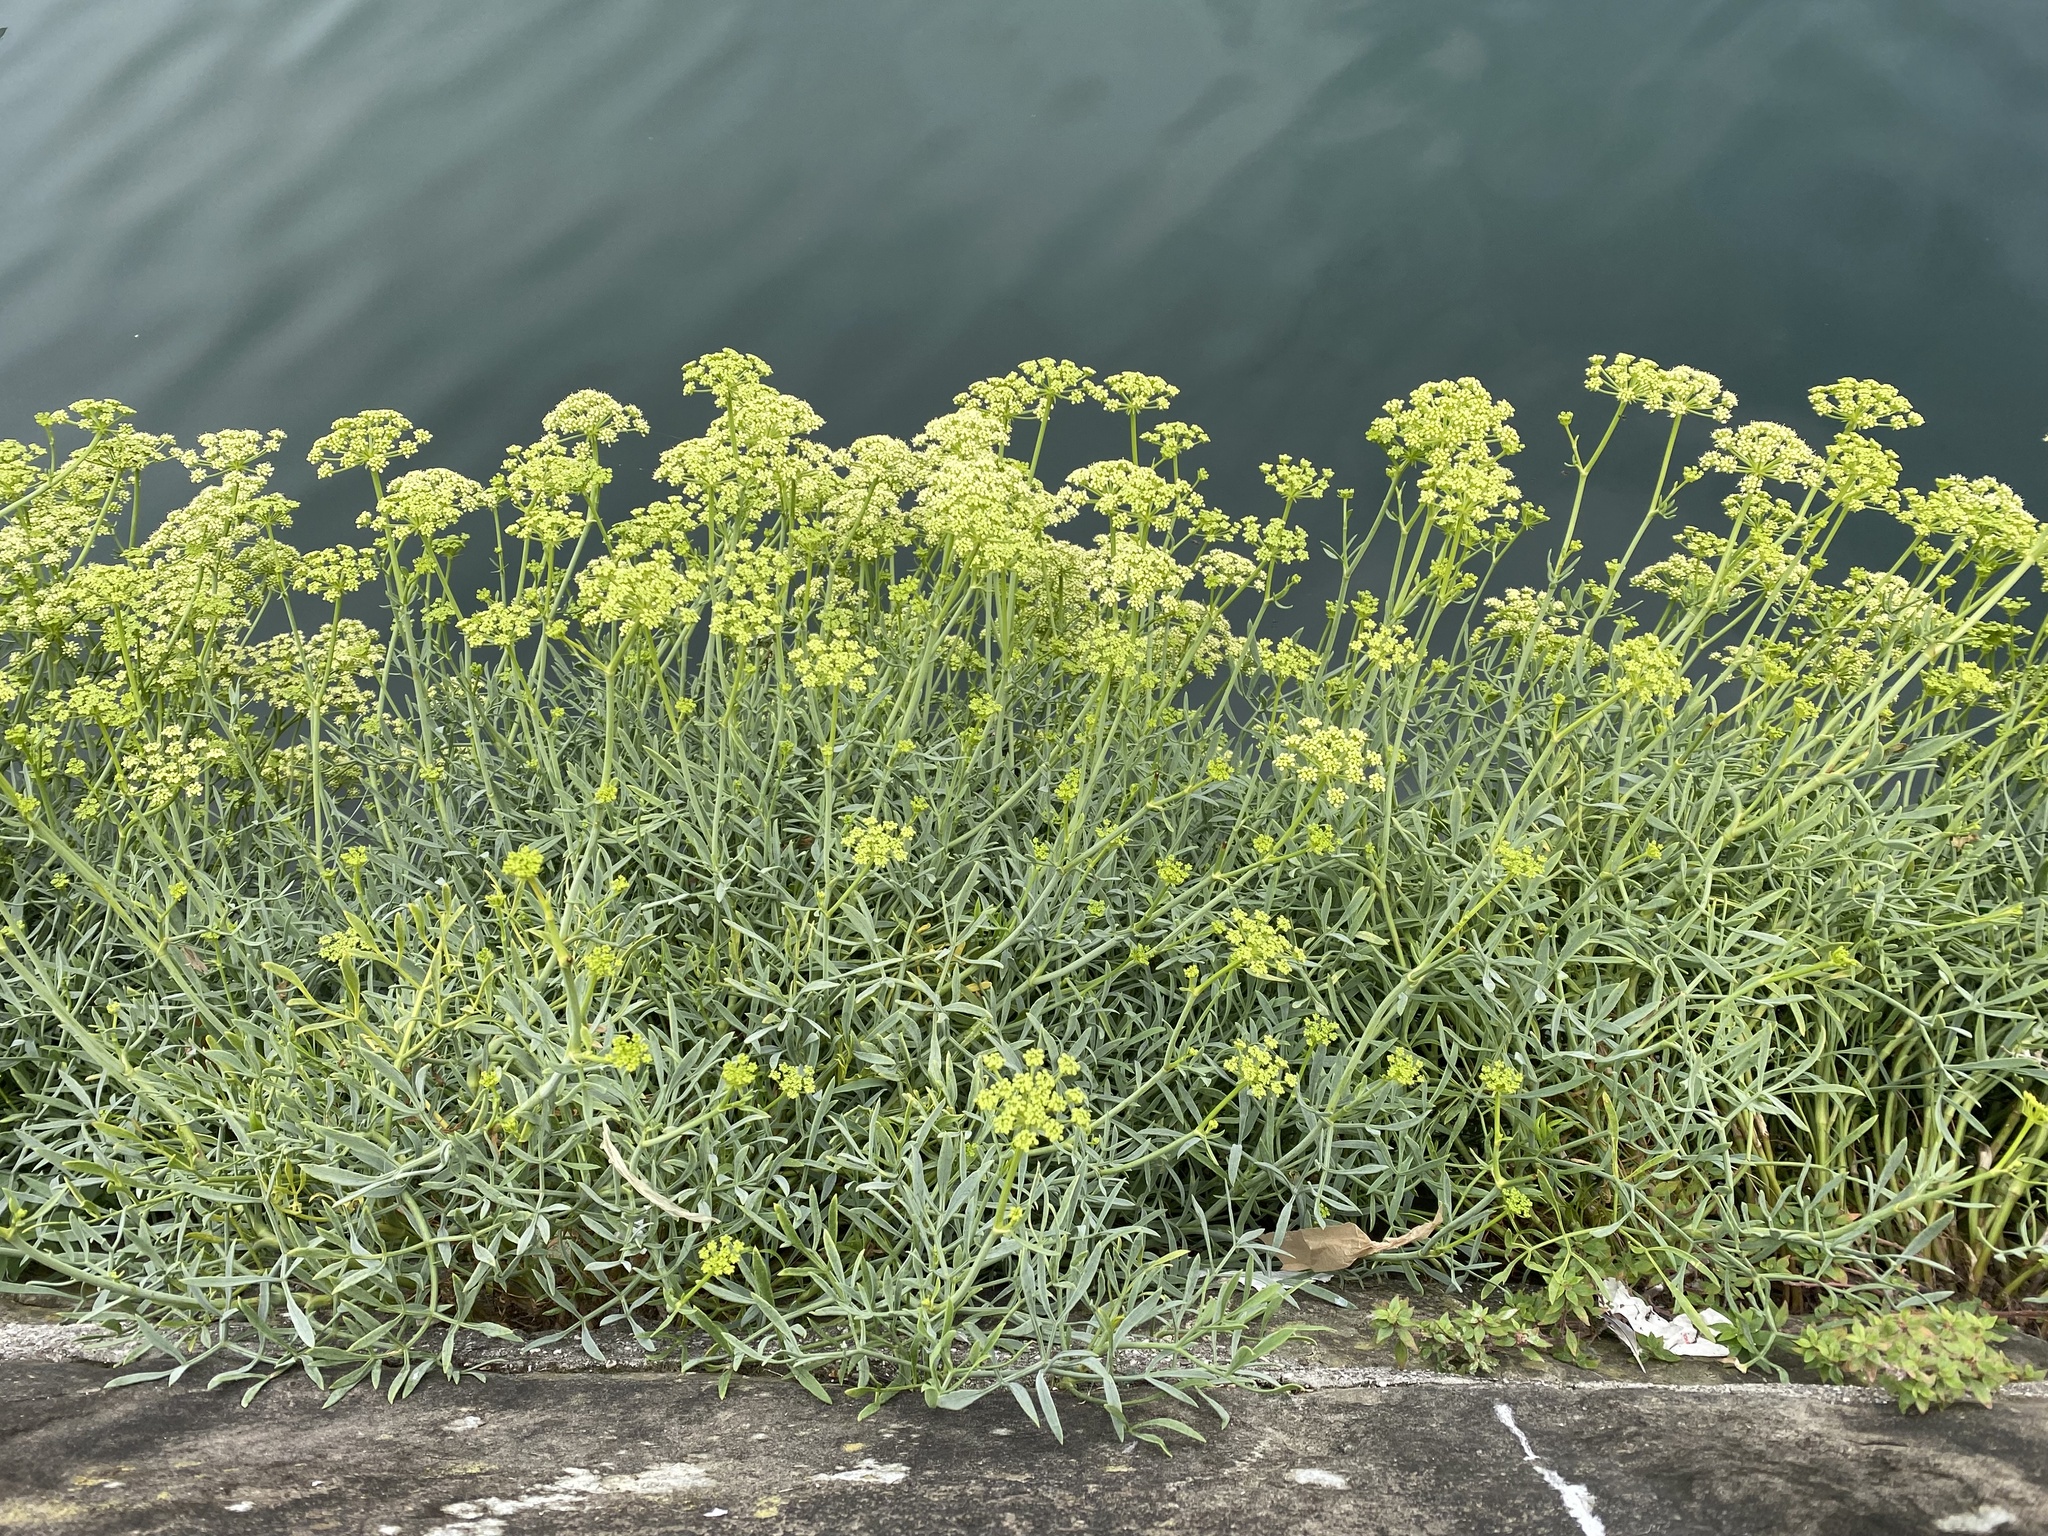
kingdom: Plantae
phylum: Tracheophyta
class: Magnoliopsida
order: Apiales
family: Apiaceae
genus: Crithmum
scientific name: Crithmum maritimum
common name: Rock samphire
